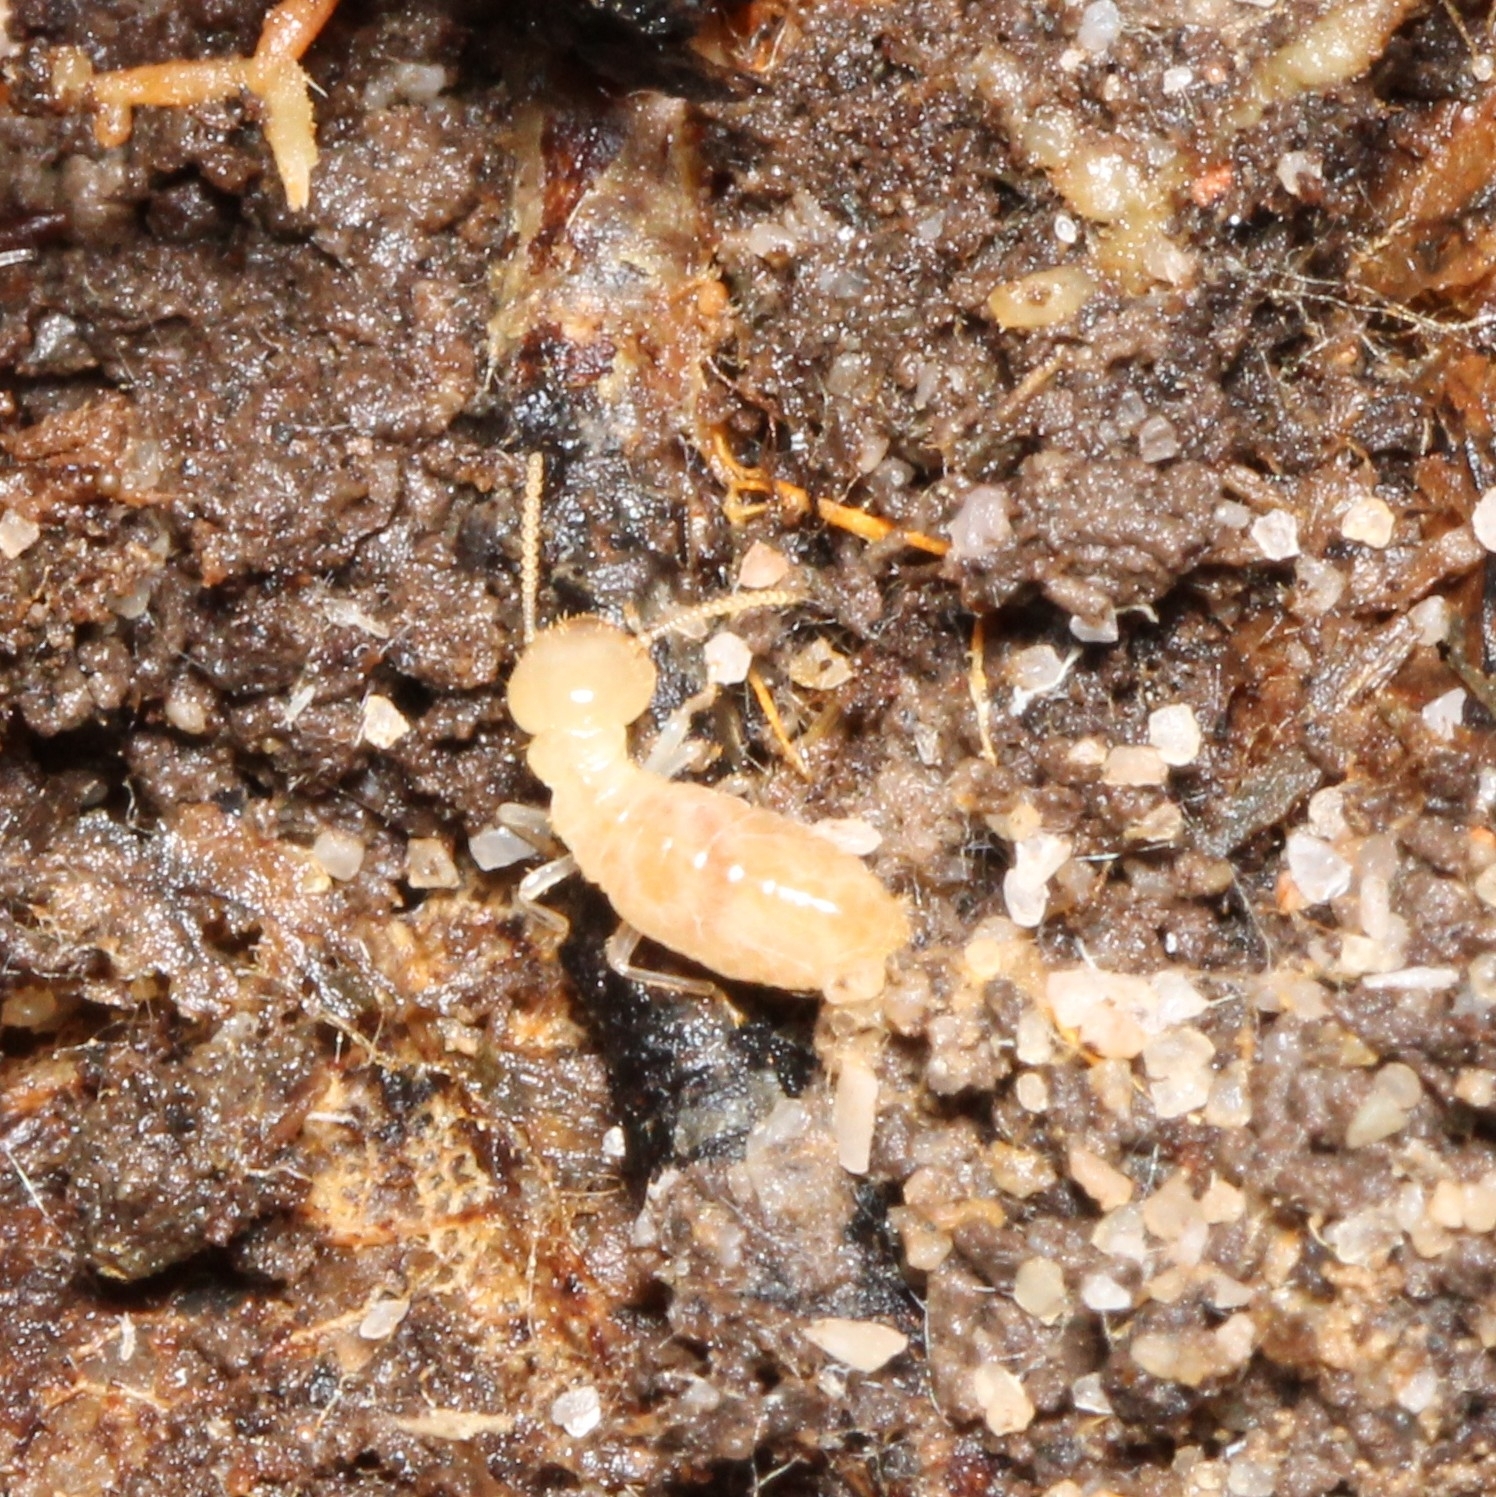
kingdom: Animalia
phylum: Arthropoda
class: Insecta
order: Blattodea
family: Rhinotermitidae
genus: Reticulitermes
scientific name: Reticulitermes flavipes
